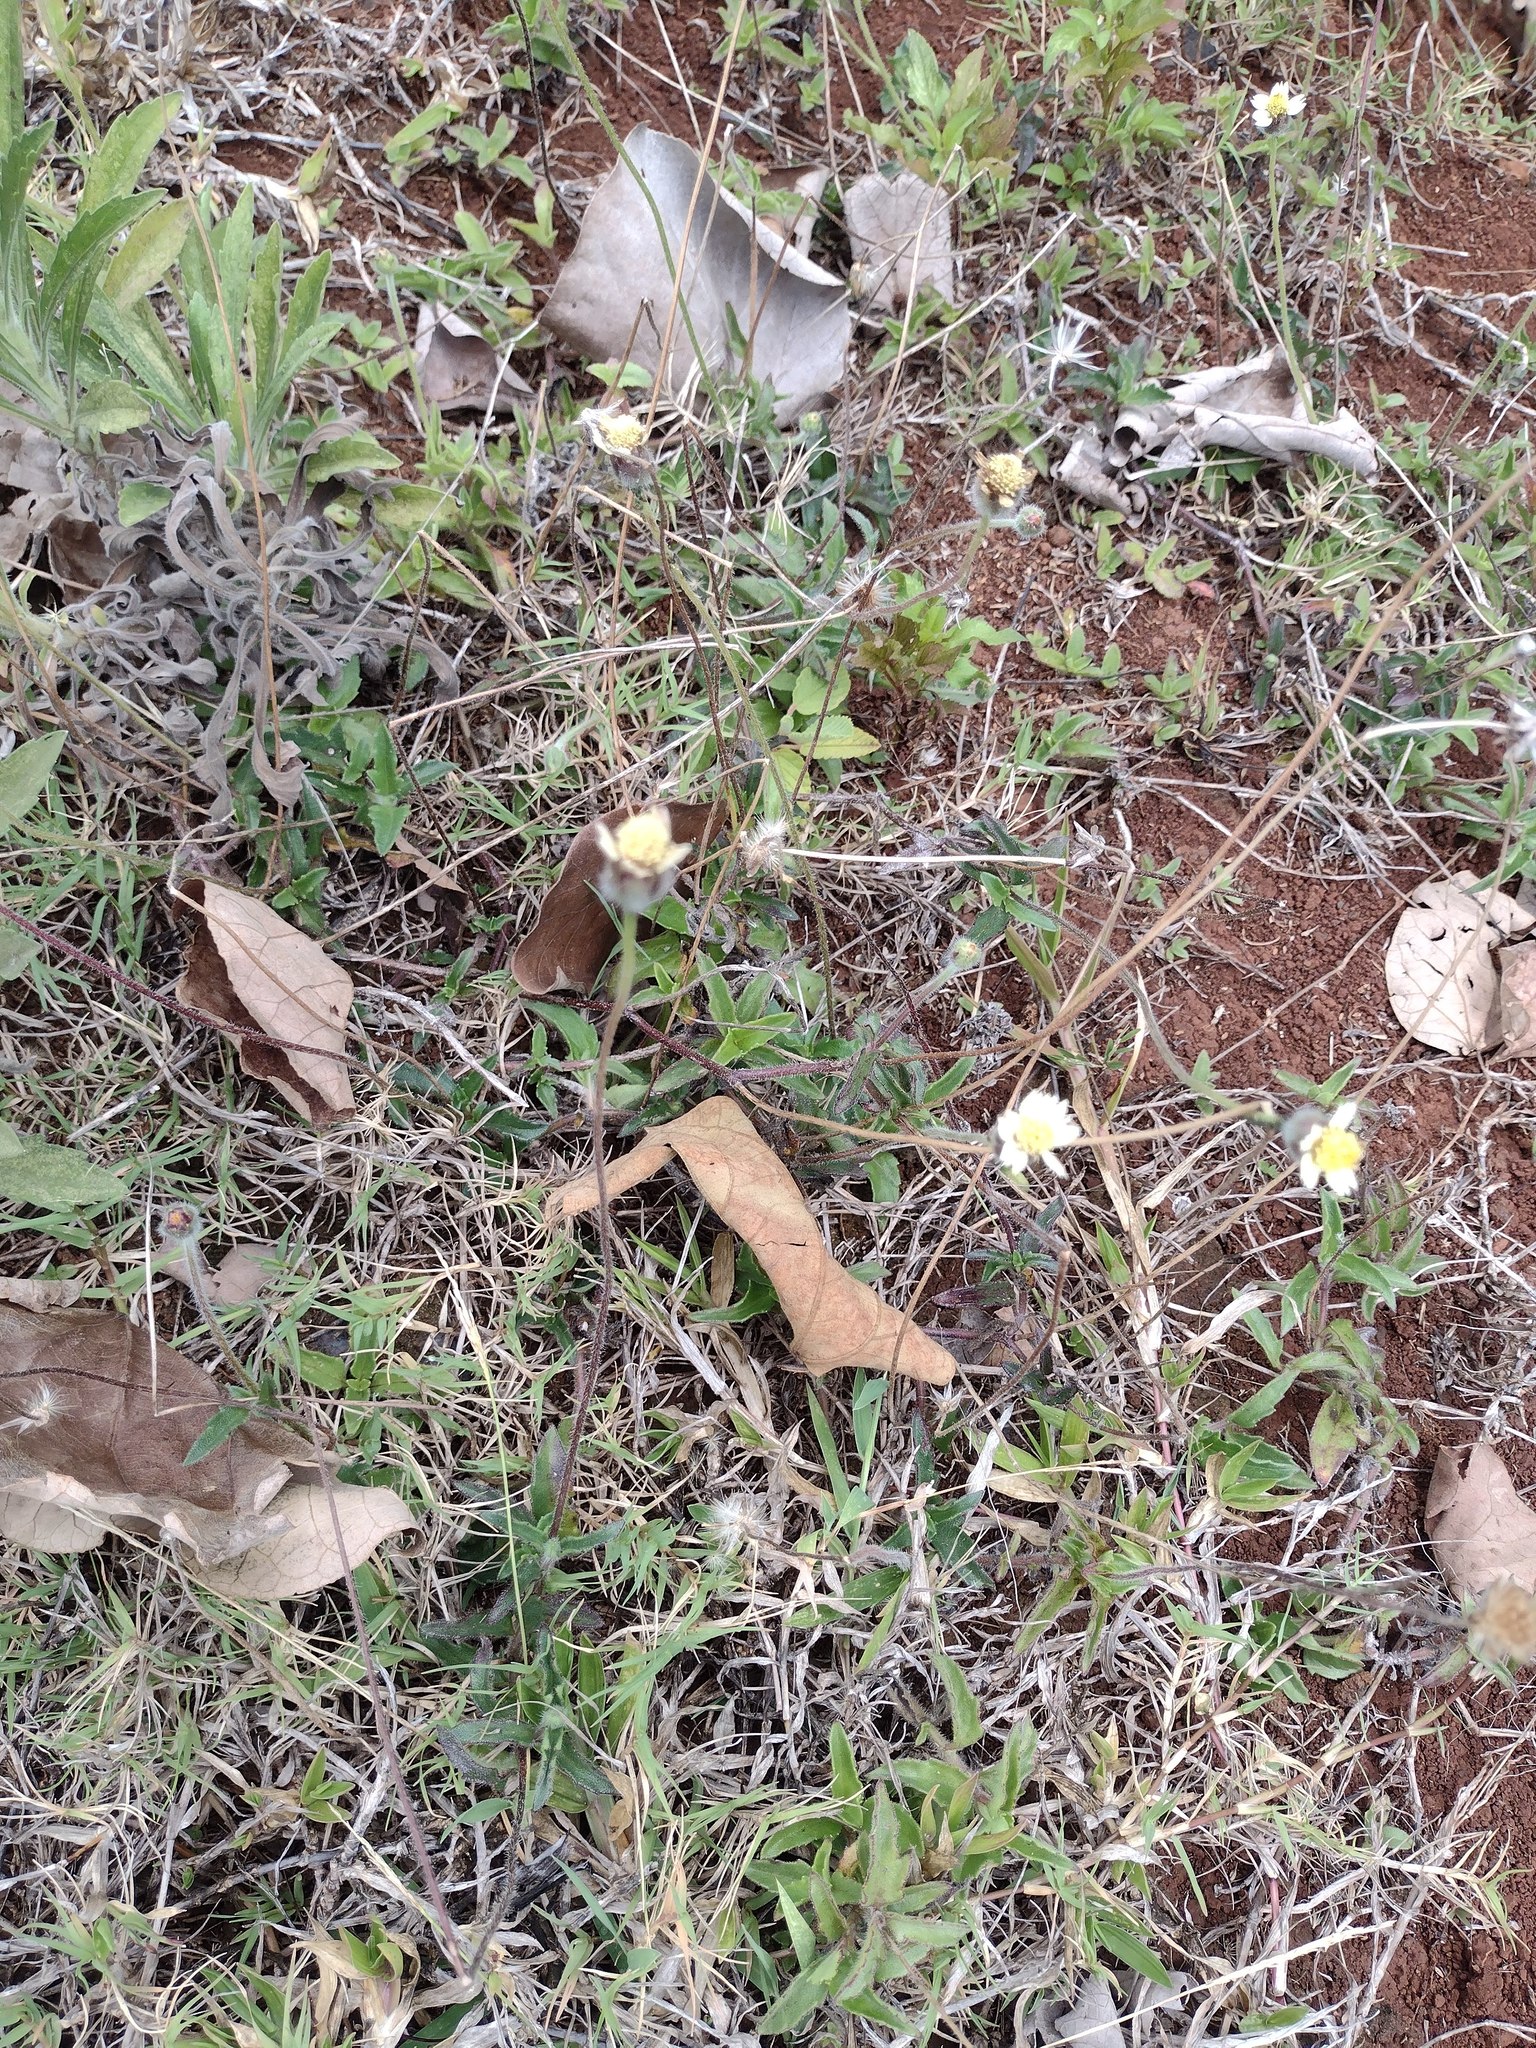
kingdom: Plantae
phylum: Tracheophyta
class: Magnoliopsida
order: Asterales
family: Asteraceae
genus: Tridax
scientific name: Tridax procumbens
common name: Coatbuttons
